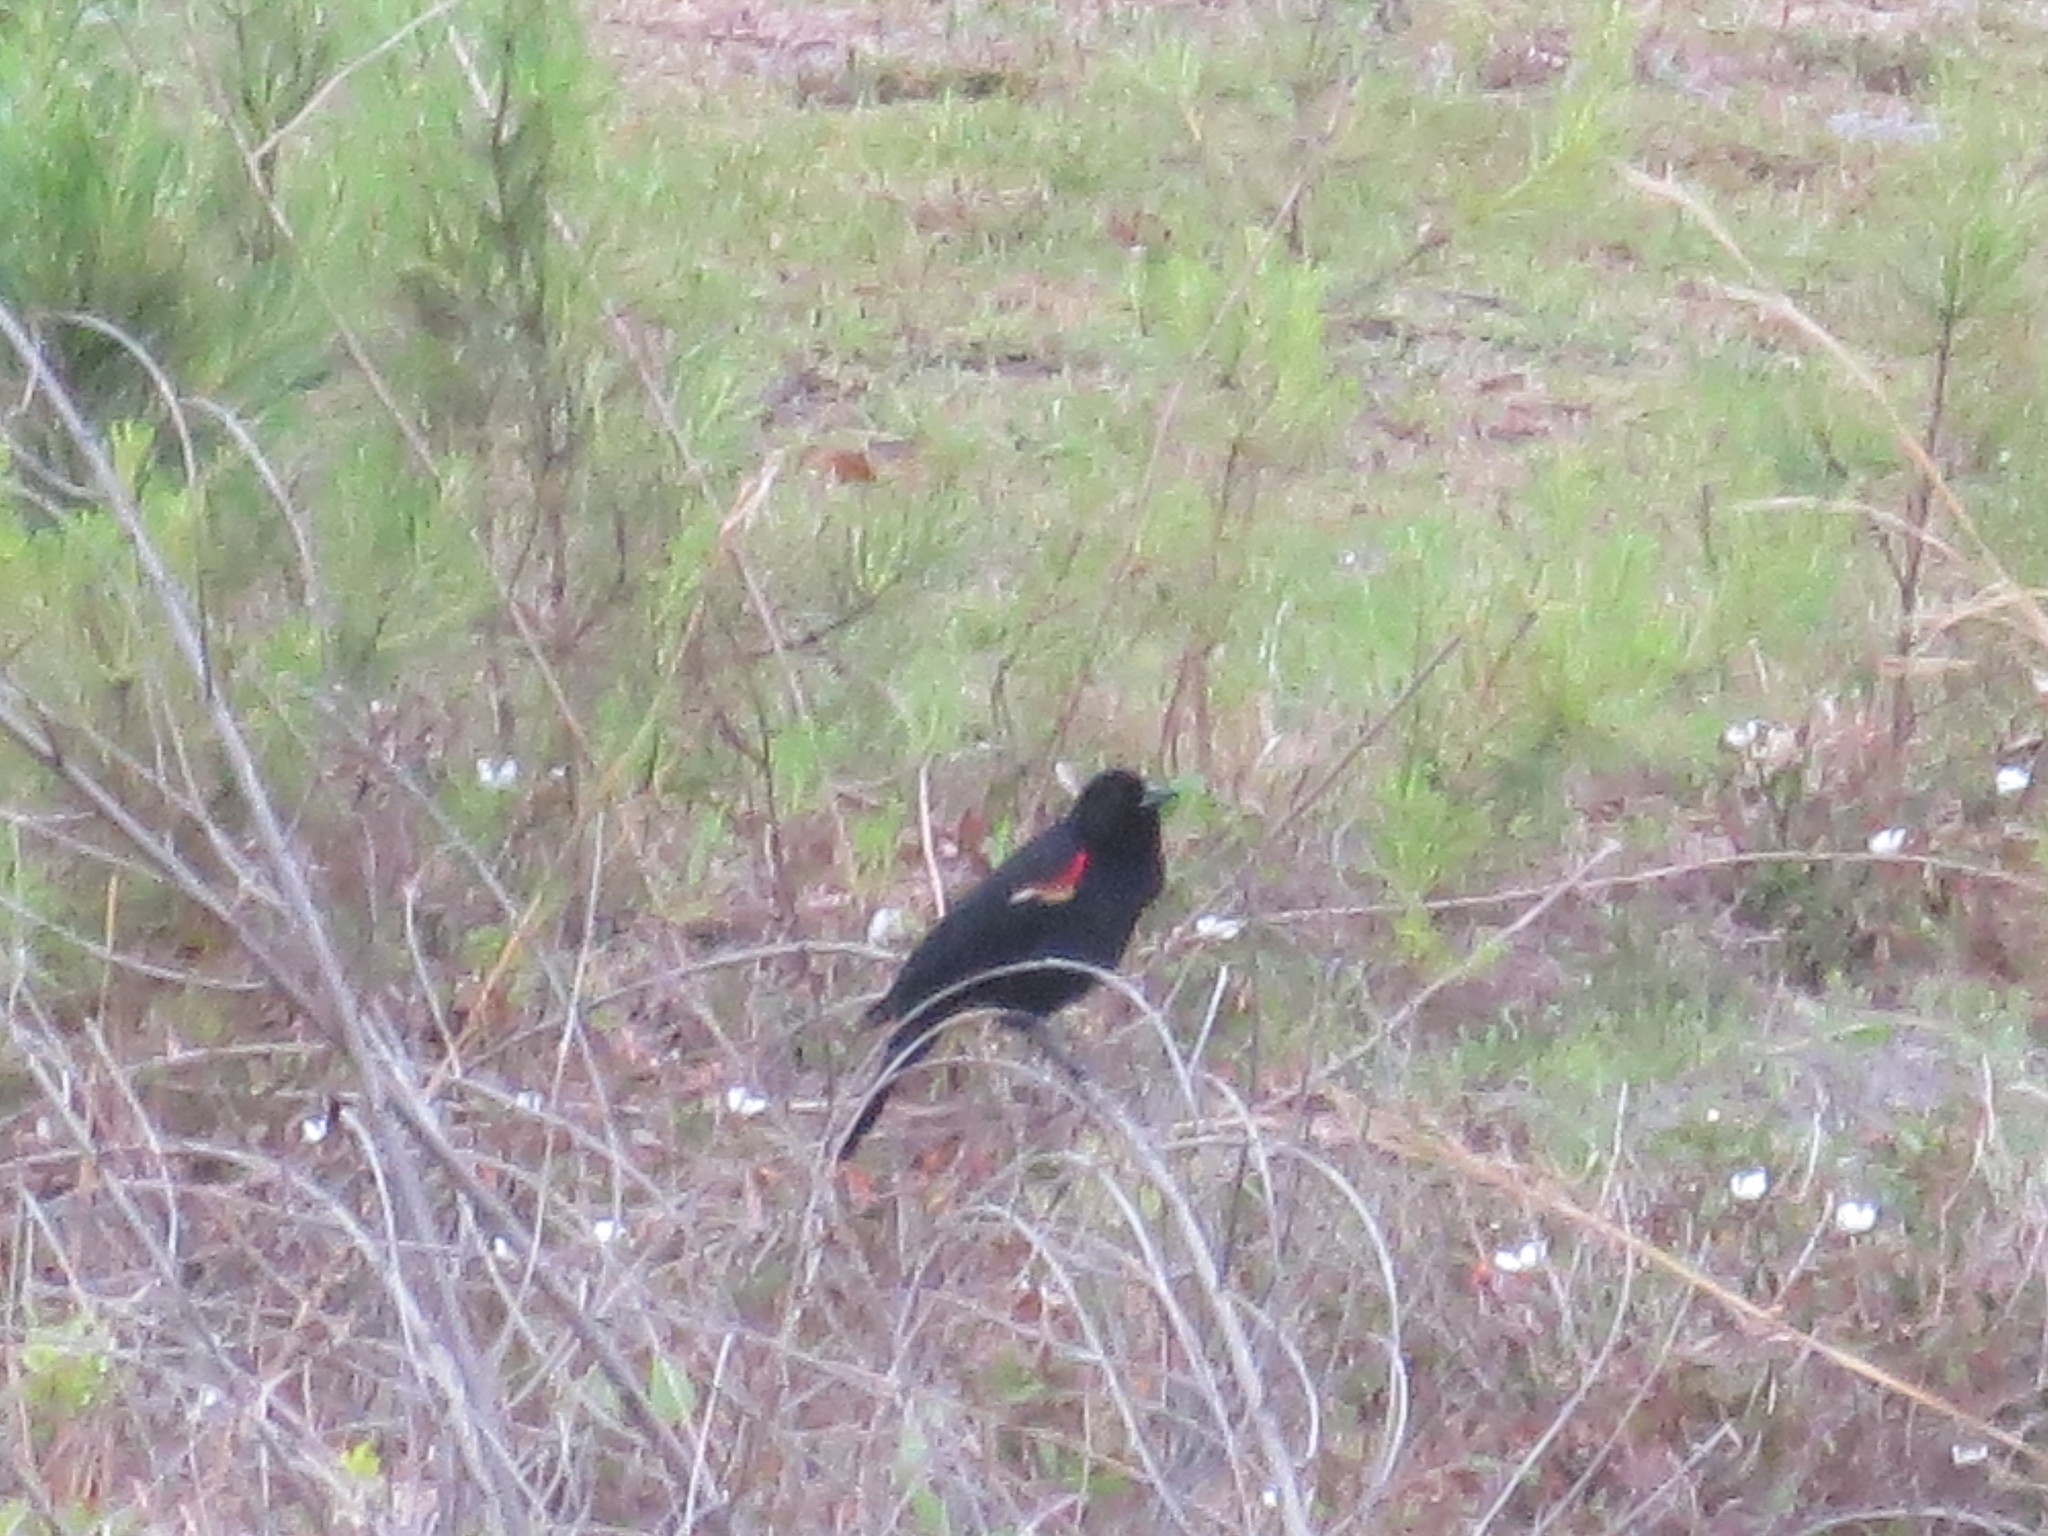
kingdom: Animalia
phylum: Chordata
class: Aves
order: Passeriformes
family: Icteridae
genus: Agelaius
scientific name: Agelaius phoeniceus
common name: Red-winged blackbird
